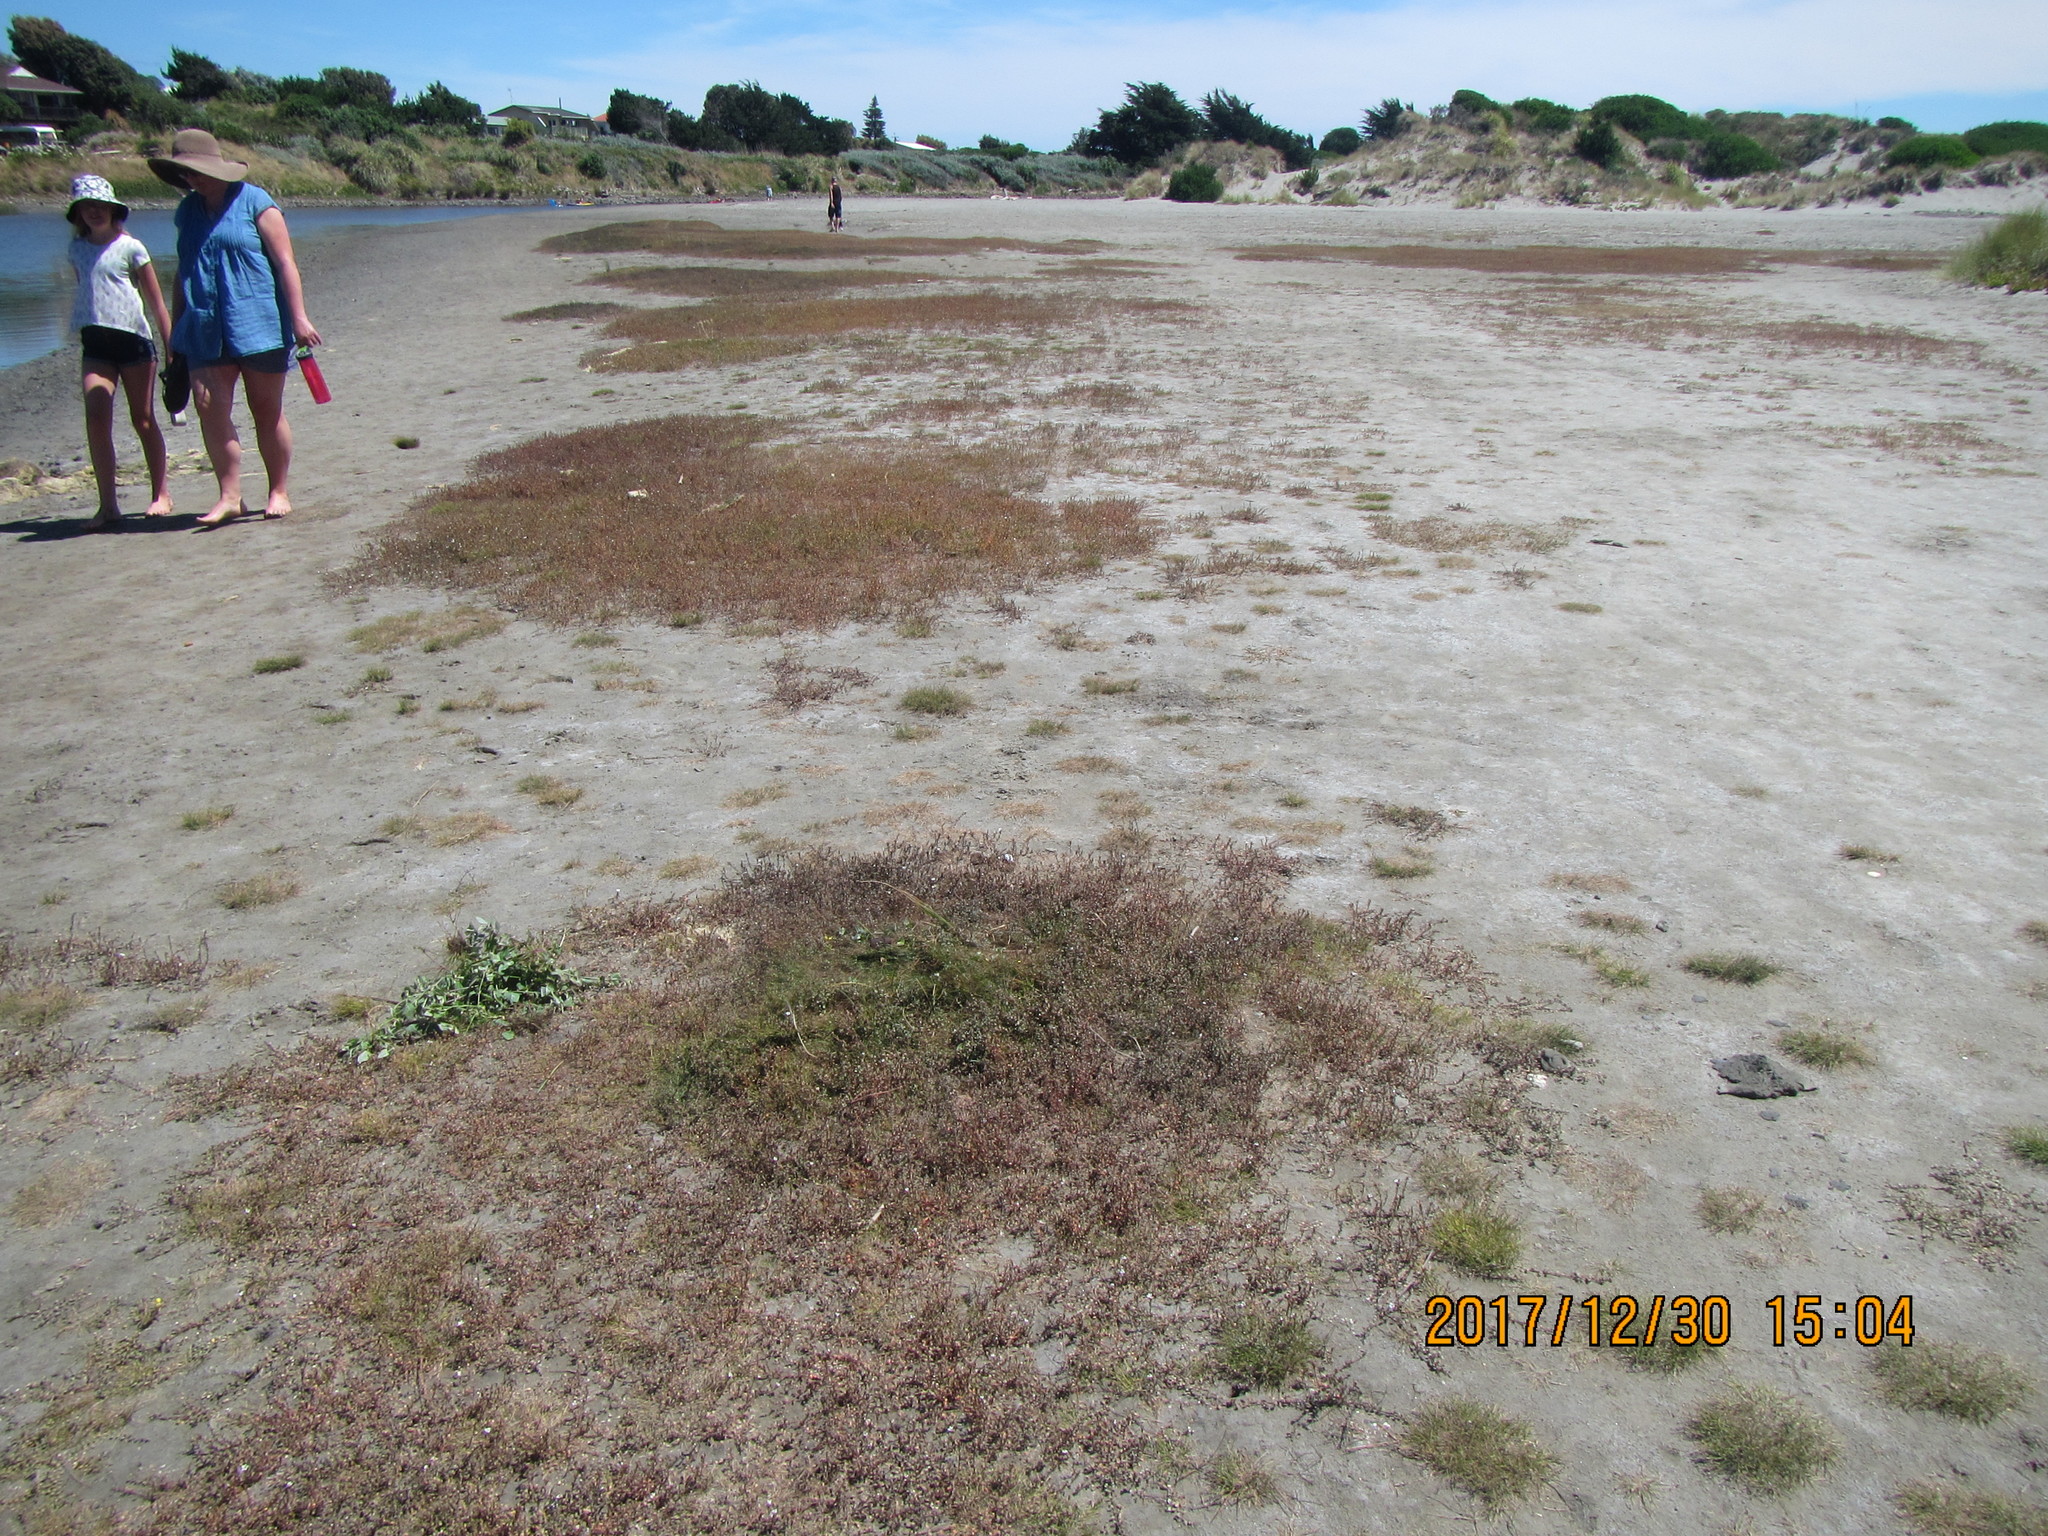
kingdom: Plantae
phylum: Tracheophyta
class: Magnoliopsida
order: Caryophyllales
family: Polygonaceae
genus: Rumex
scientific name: Rumex sagittatus
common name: Climbing dock
